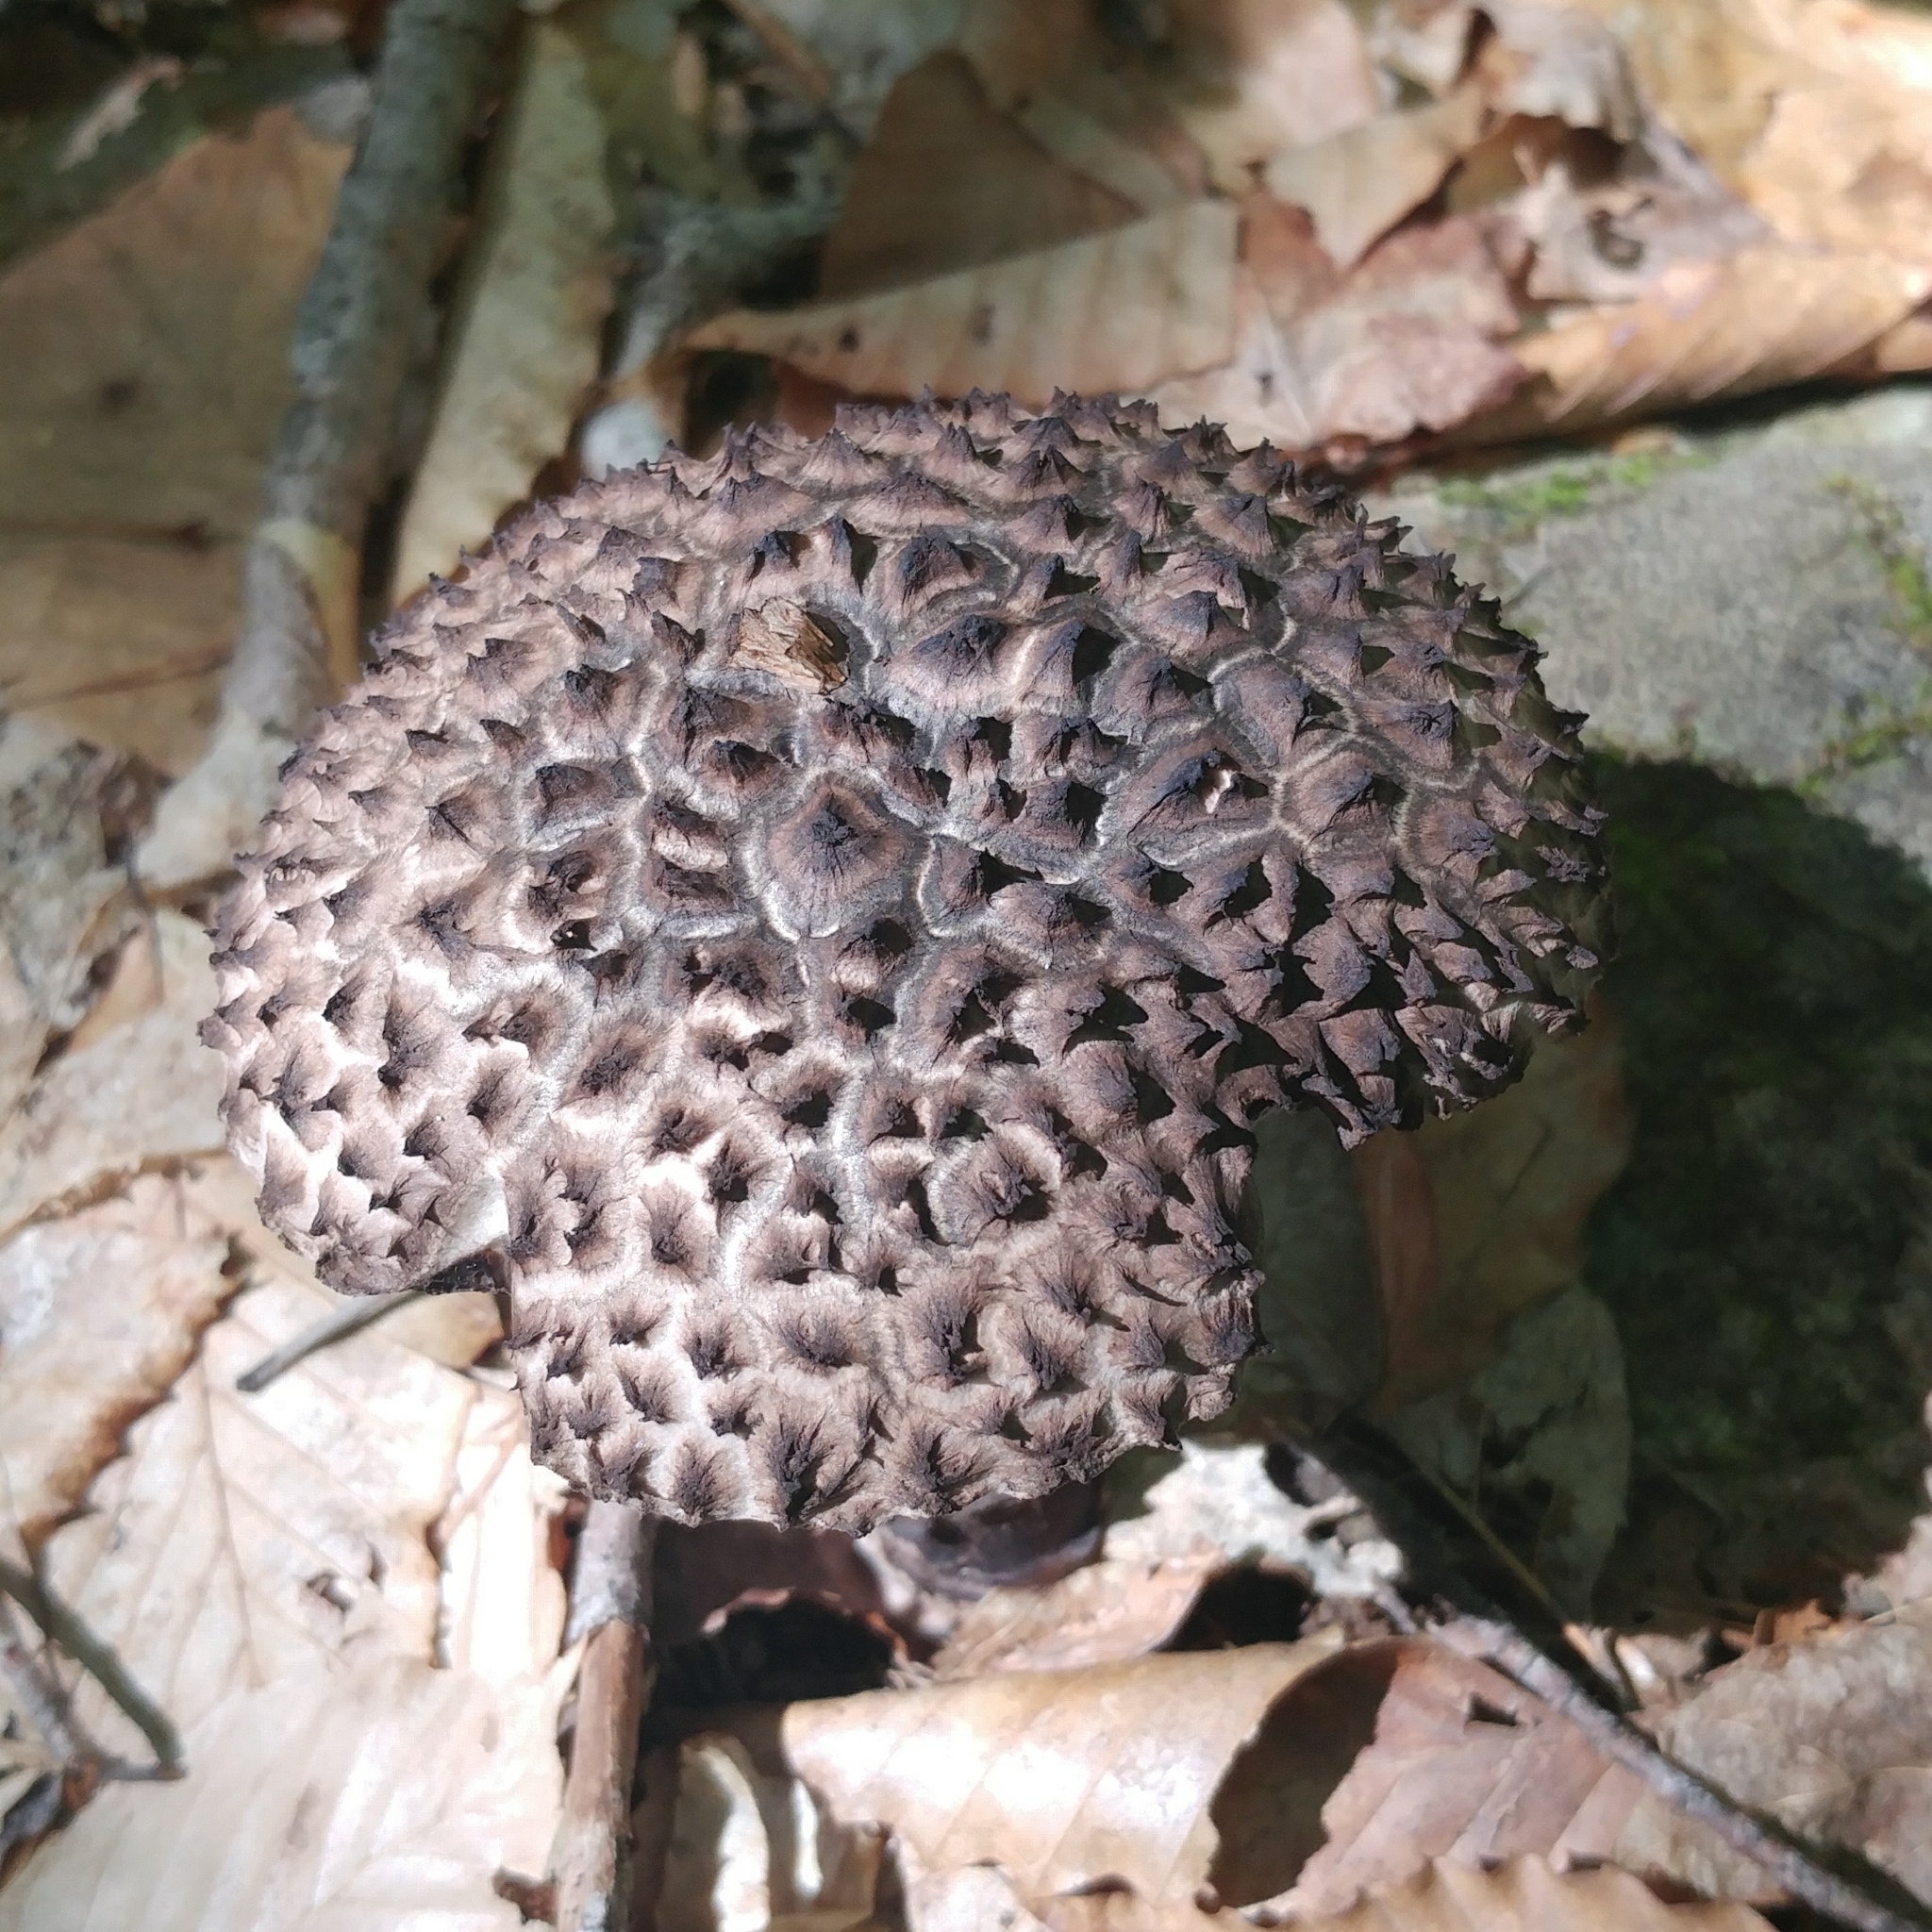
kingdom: Fungi
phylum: Basidiomycota
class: Agaricomycetes
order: Boletales
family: Boletaceae
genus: Strobilomyces
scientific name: Strobilomyces strobilaceus
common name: Old man of the woods
